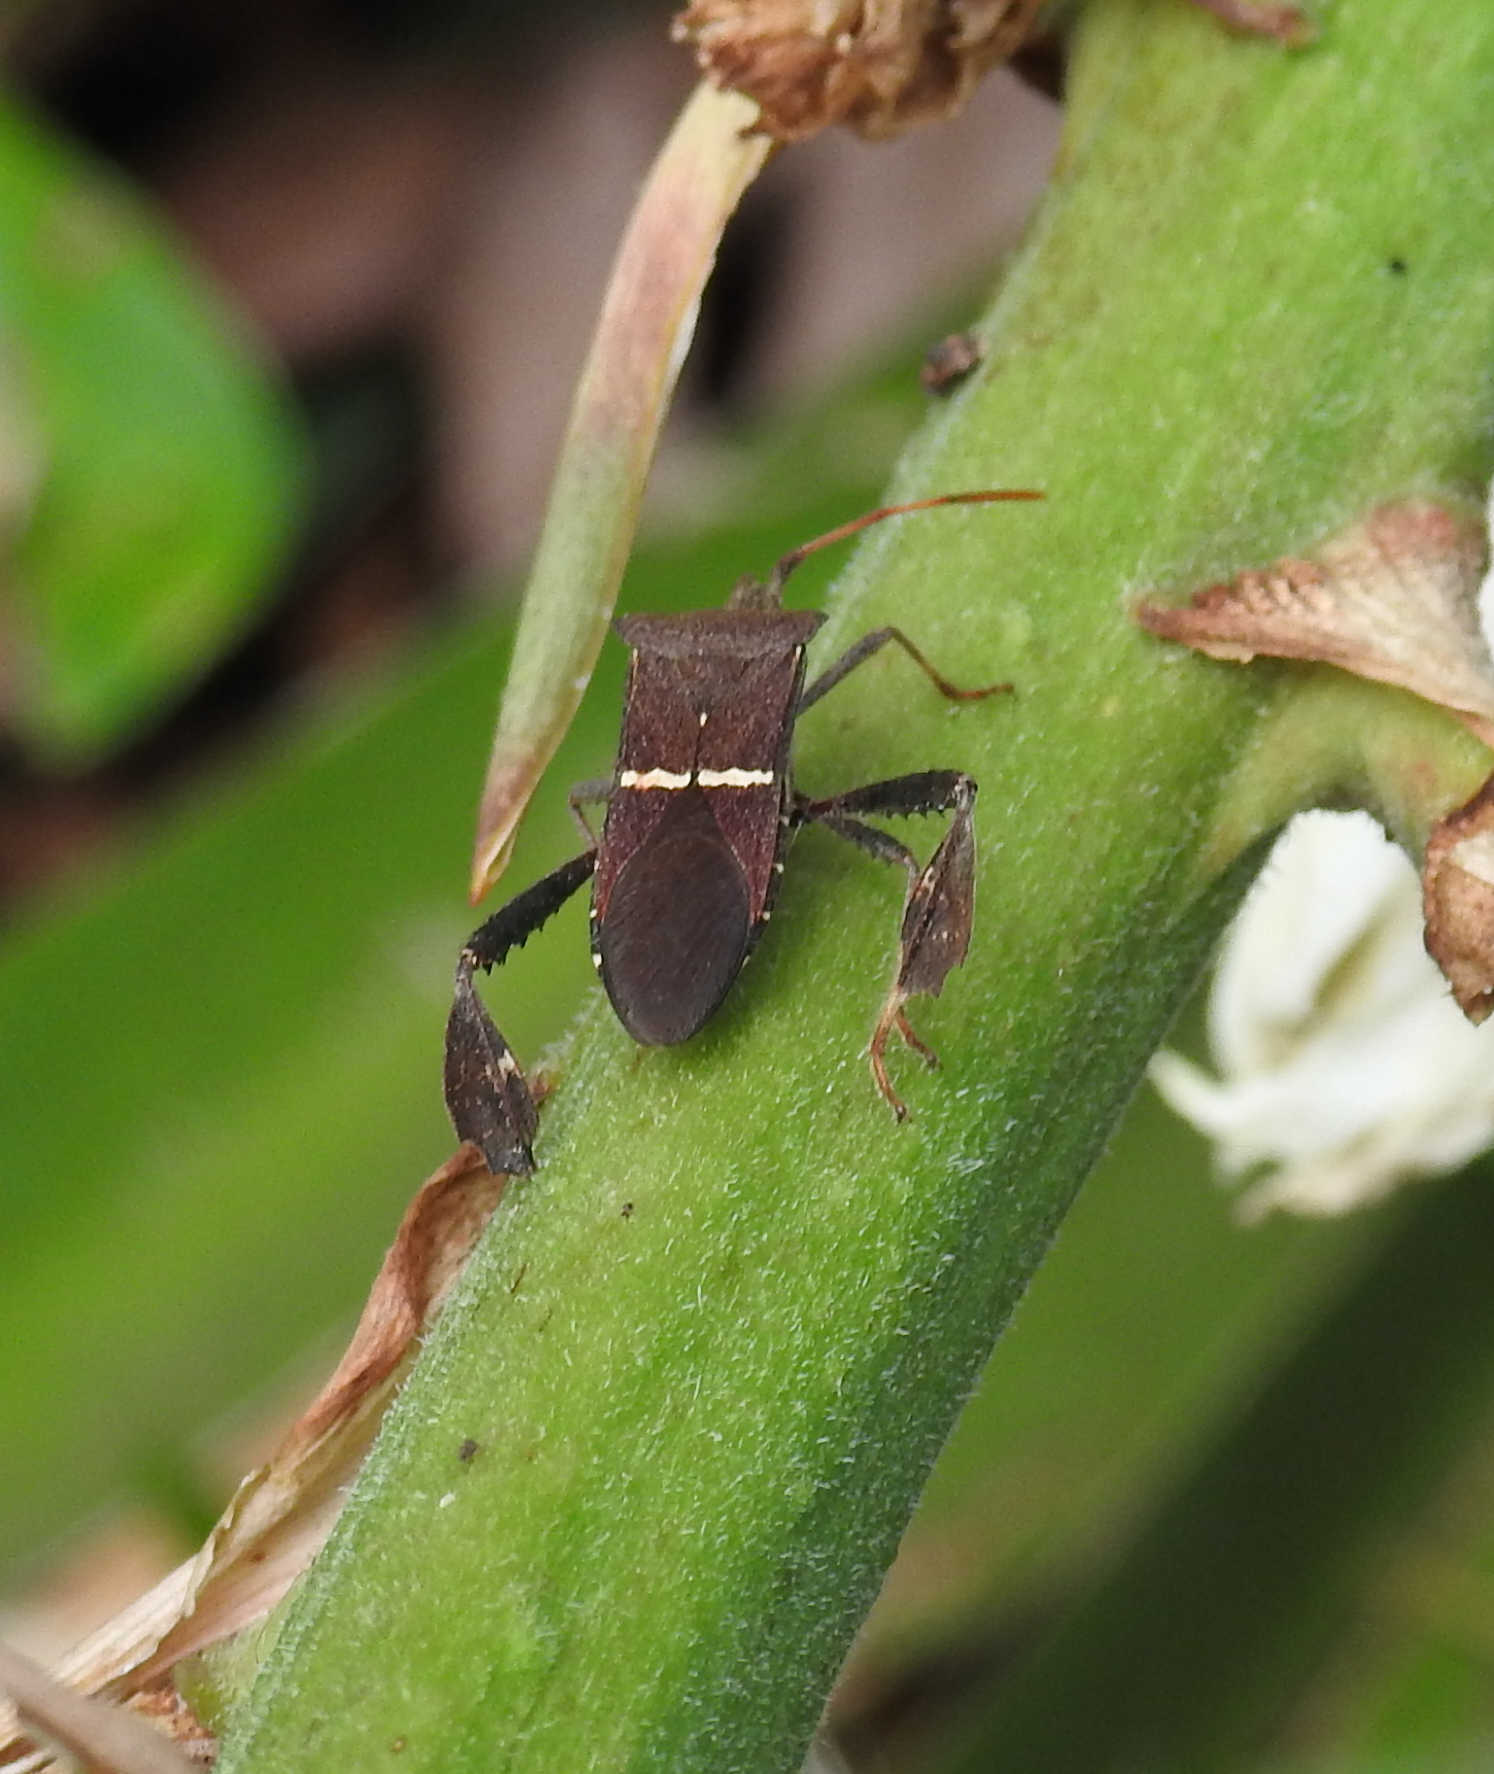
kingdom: Animalia
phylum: Arthropoda
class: Insecta
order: Hemiptera
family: Coreidae
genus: Leptoglossus
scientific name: Leptoglossus phyllopus
